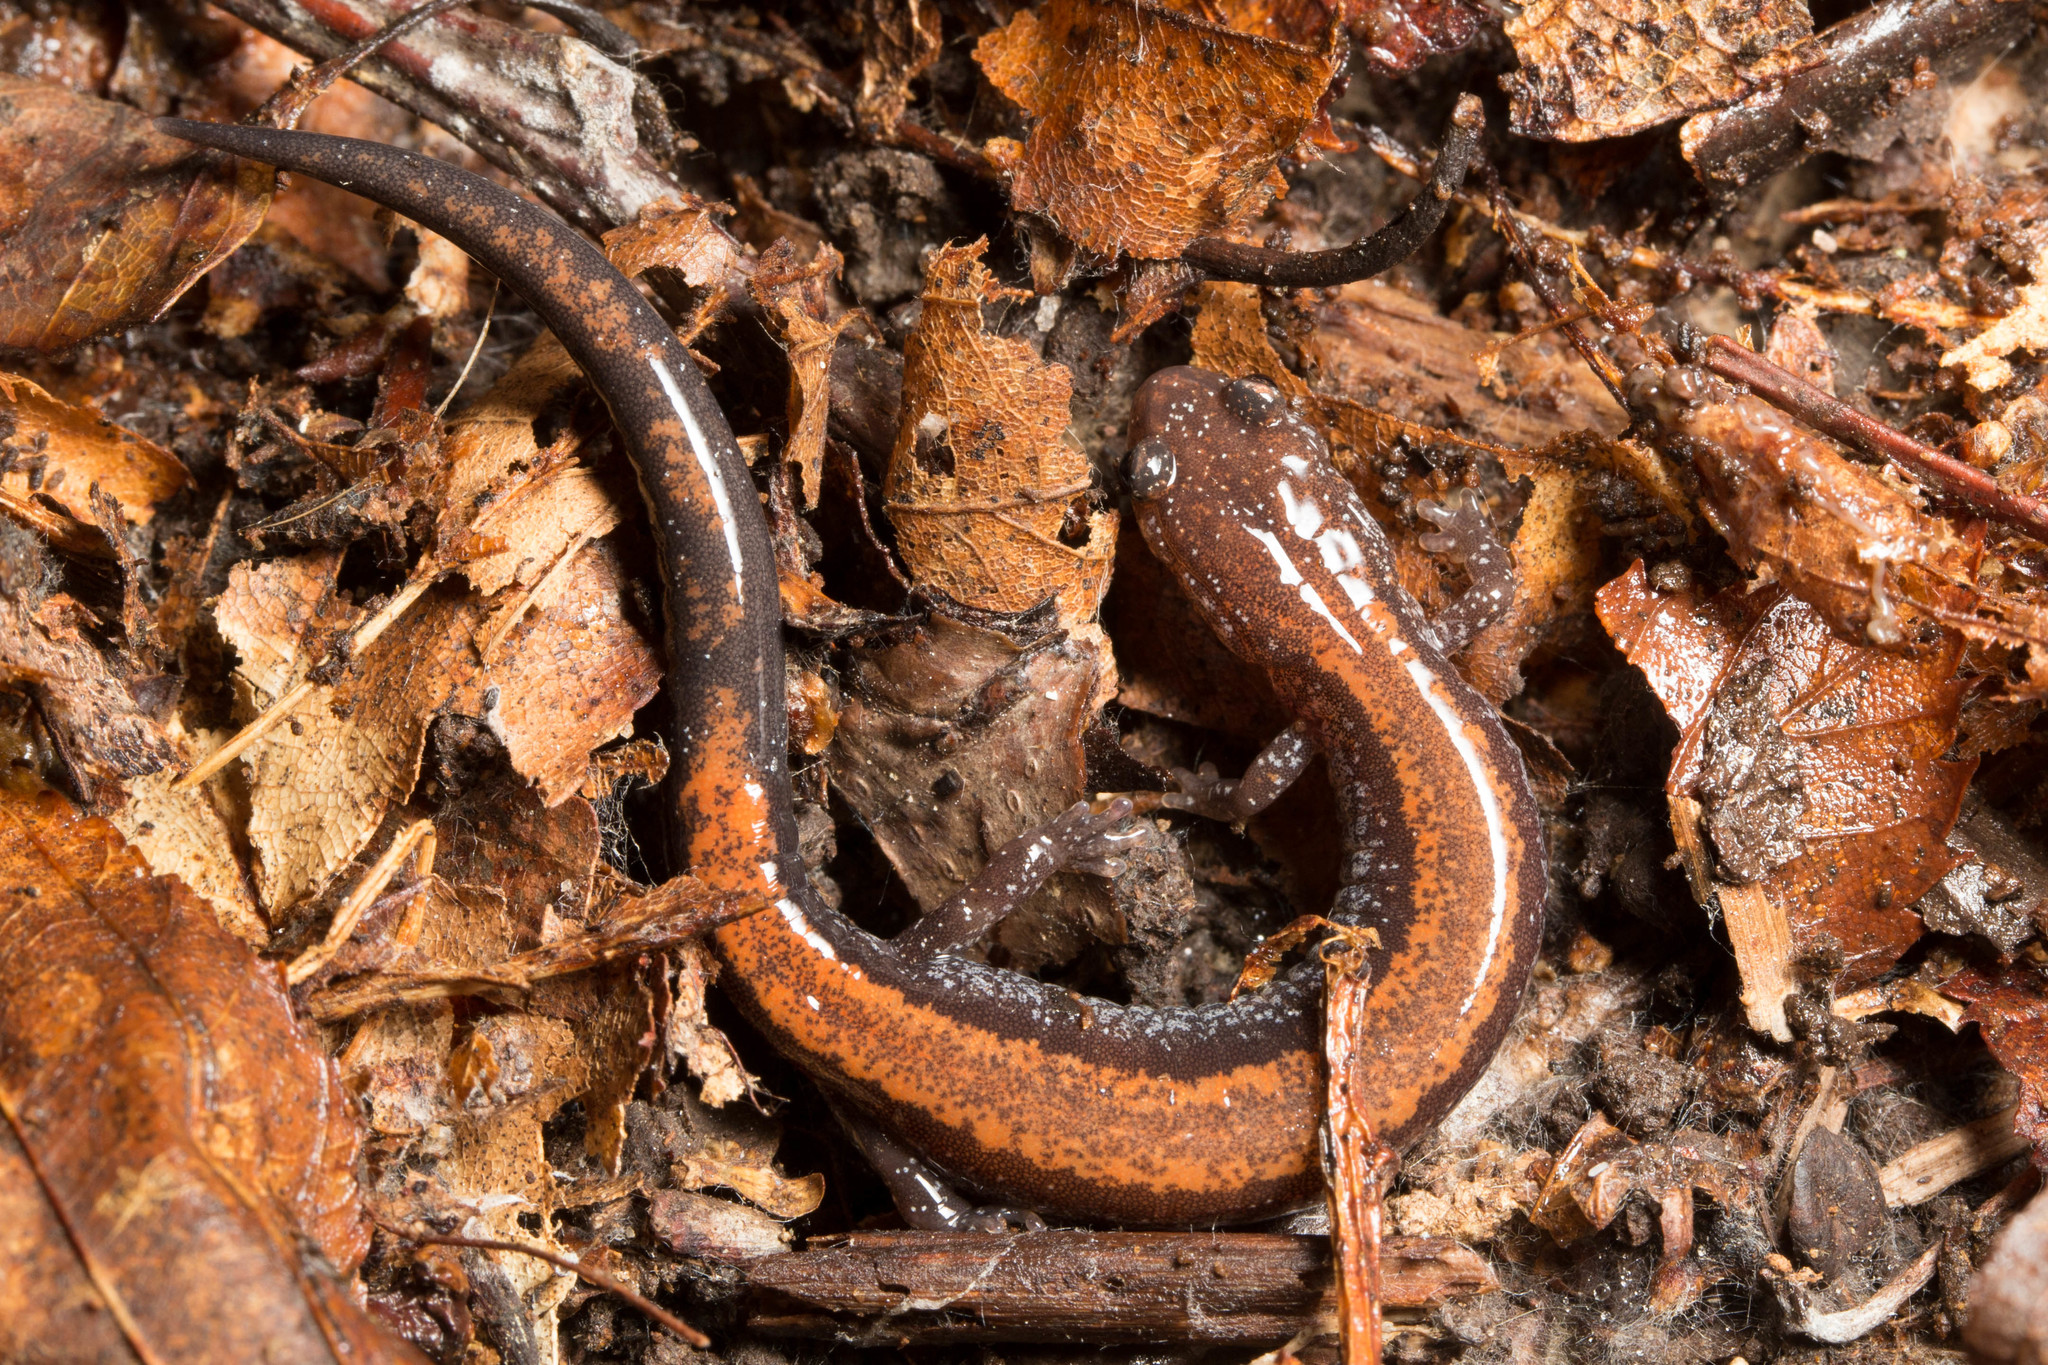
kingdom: Animalia
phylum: Chordata
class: Amphibia
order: Caudata
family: Plethodontidae
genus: Plethodon
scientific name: Plethodon cinereus
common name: Redback salamander
